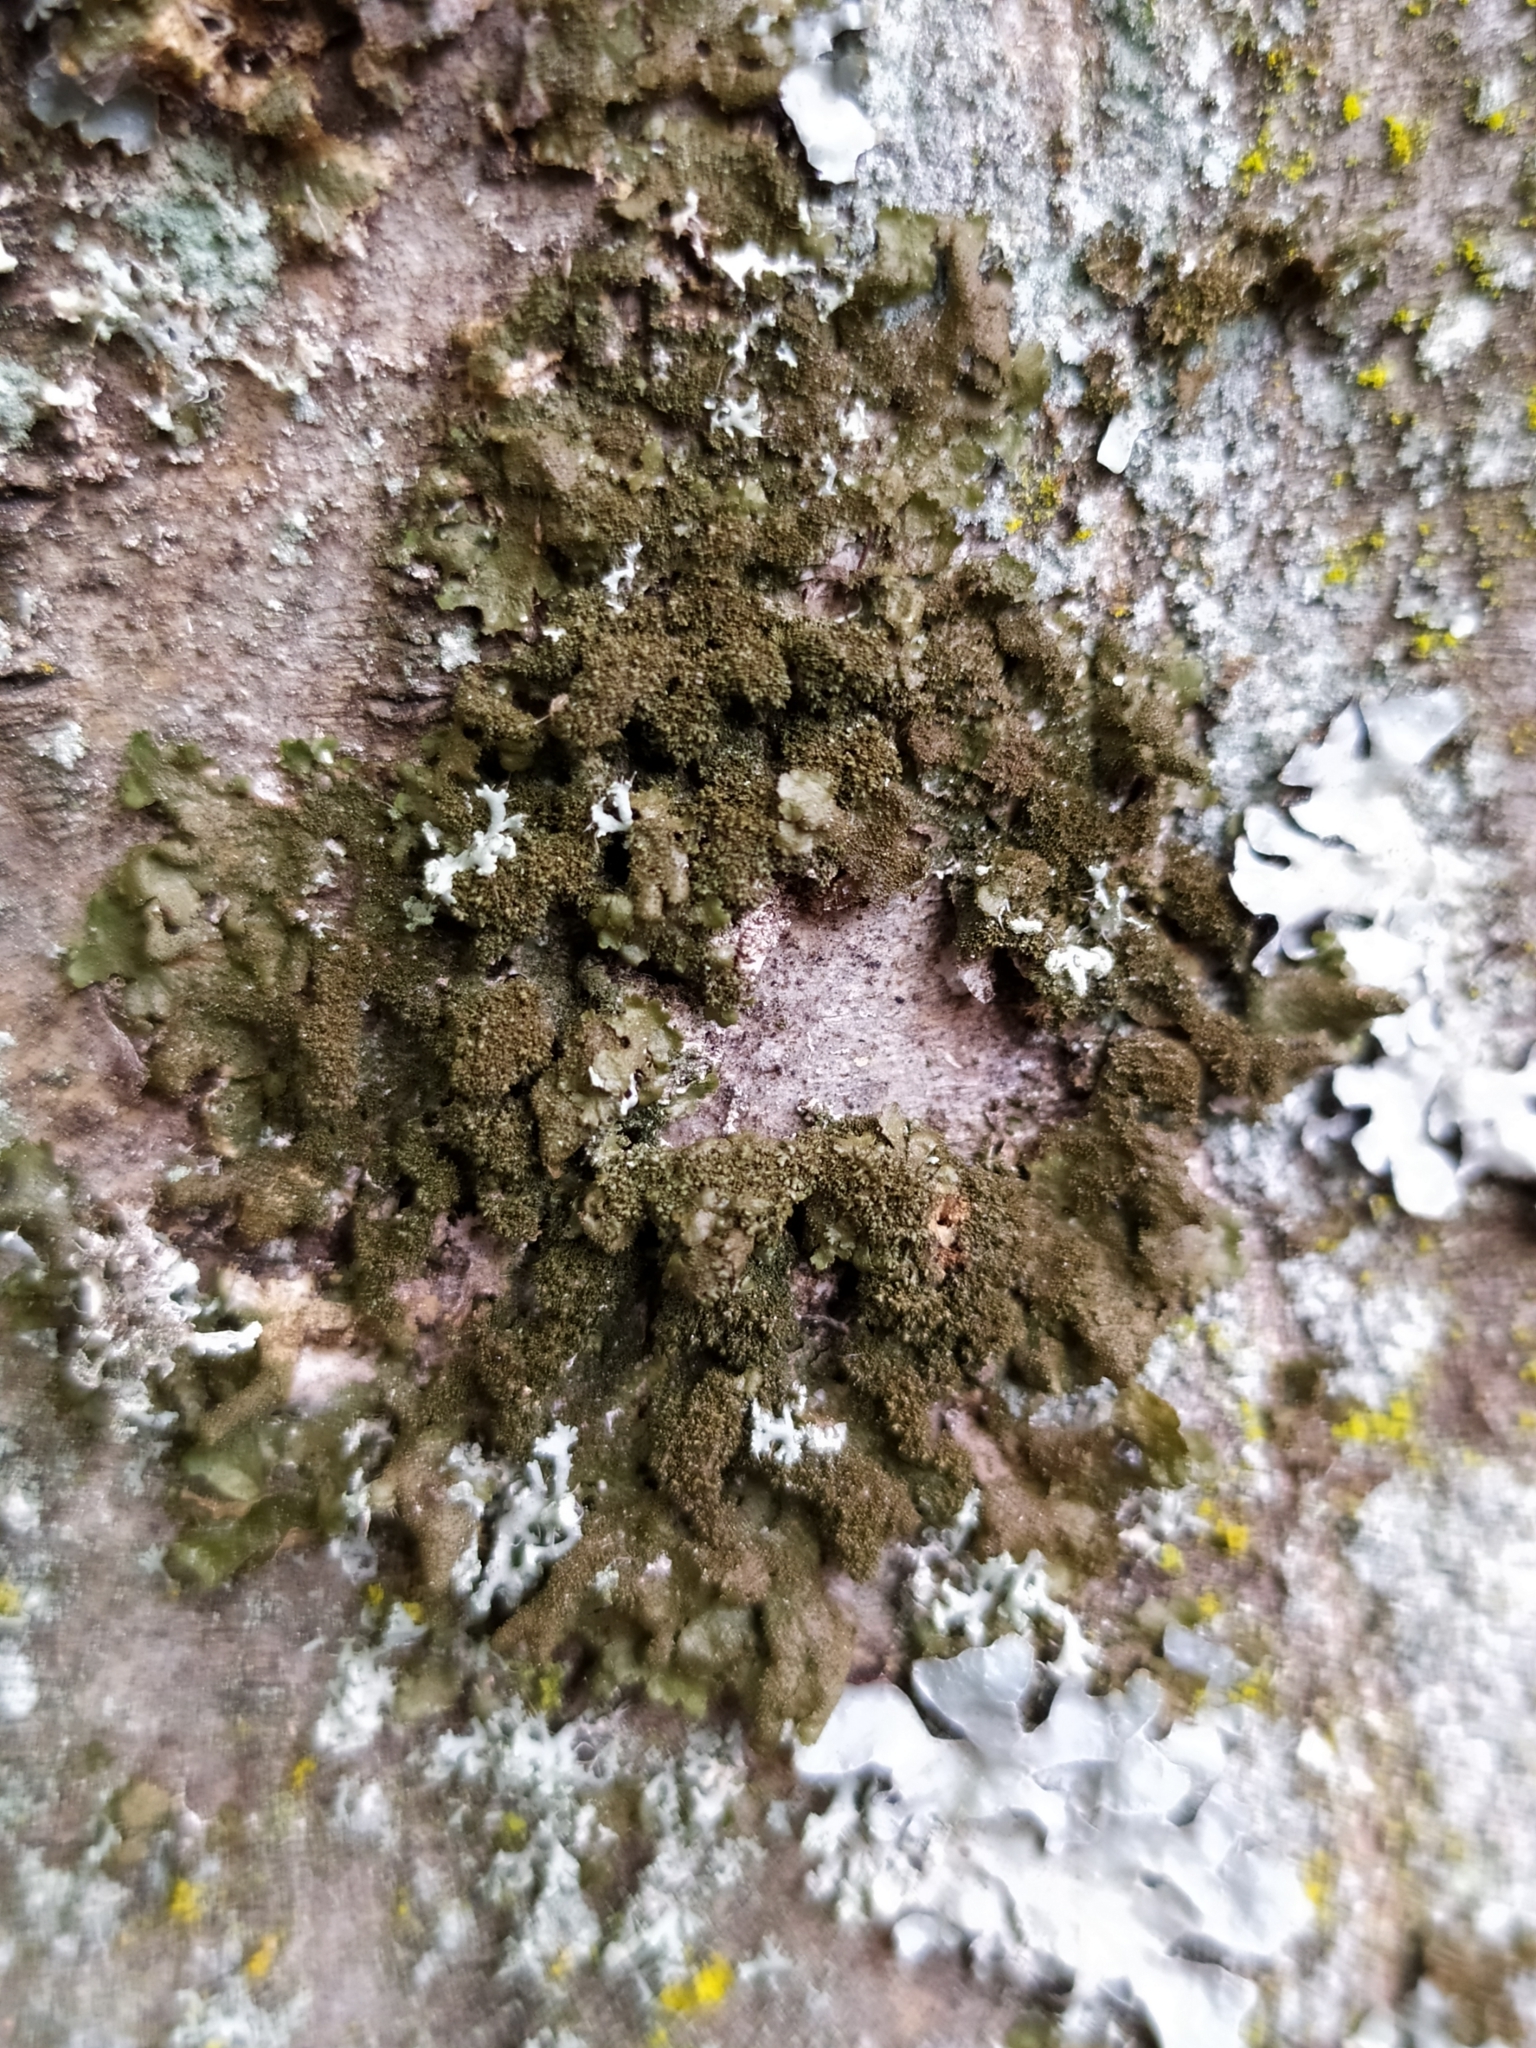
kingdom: Fungi
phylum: Ascomycota
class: Lecanoromycetes
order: Lecanorales
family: Parmeliaceae
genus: Melanohalea
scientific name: Melanohalea exasperatula
